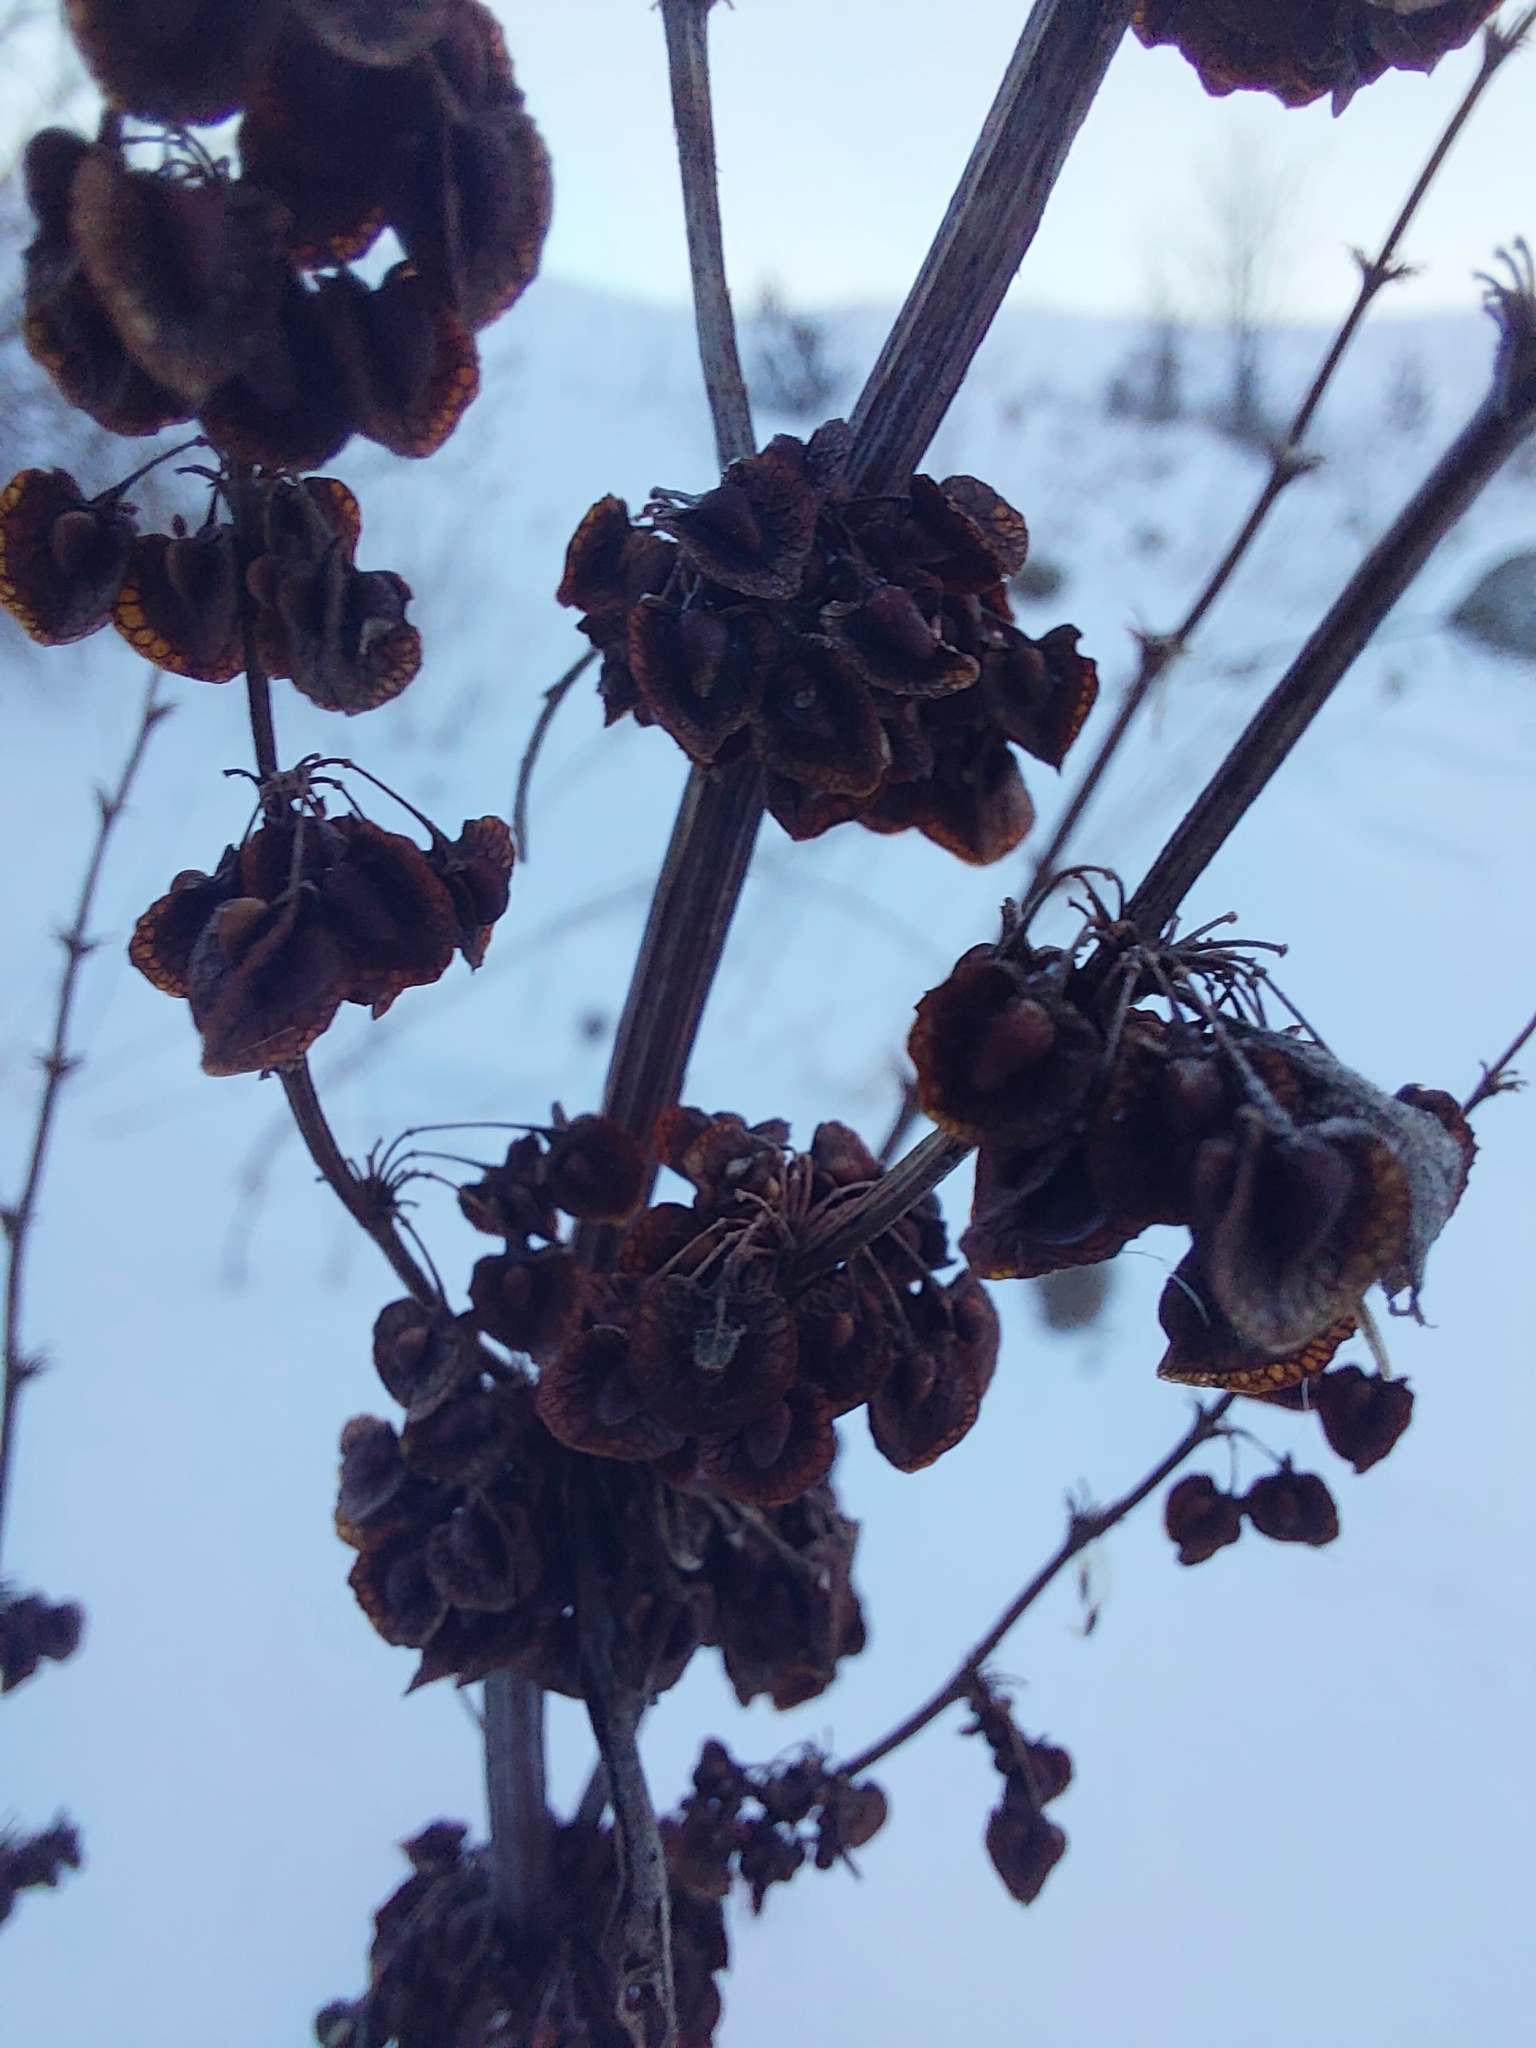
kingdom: Plantae
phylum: Tracheophyta
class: Magnoliopsida
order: Caryophyllales
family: Polygonaceae
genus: Rumex
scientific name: Rumex crispus
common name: Curled dock
